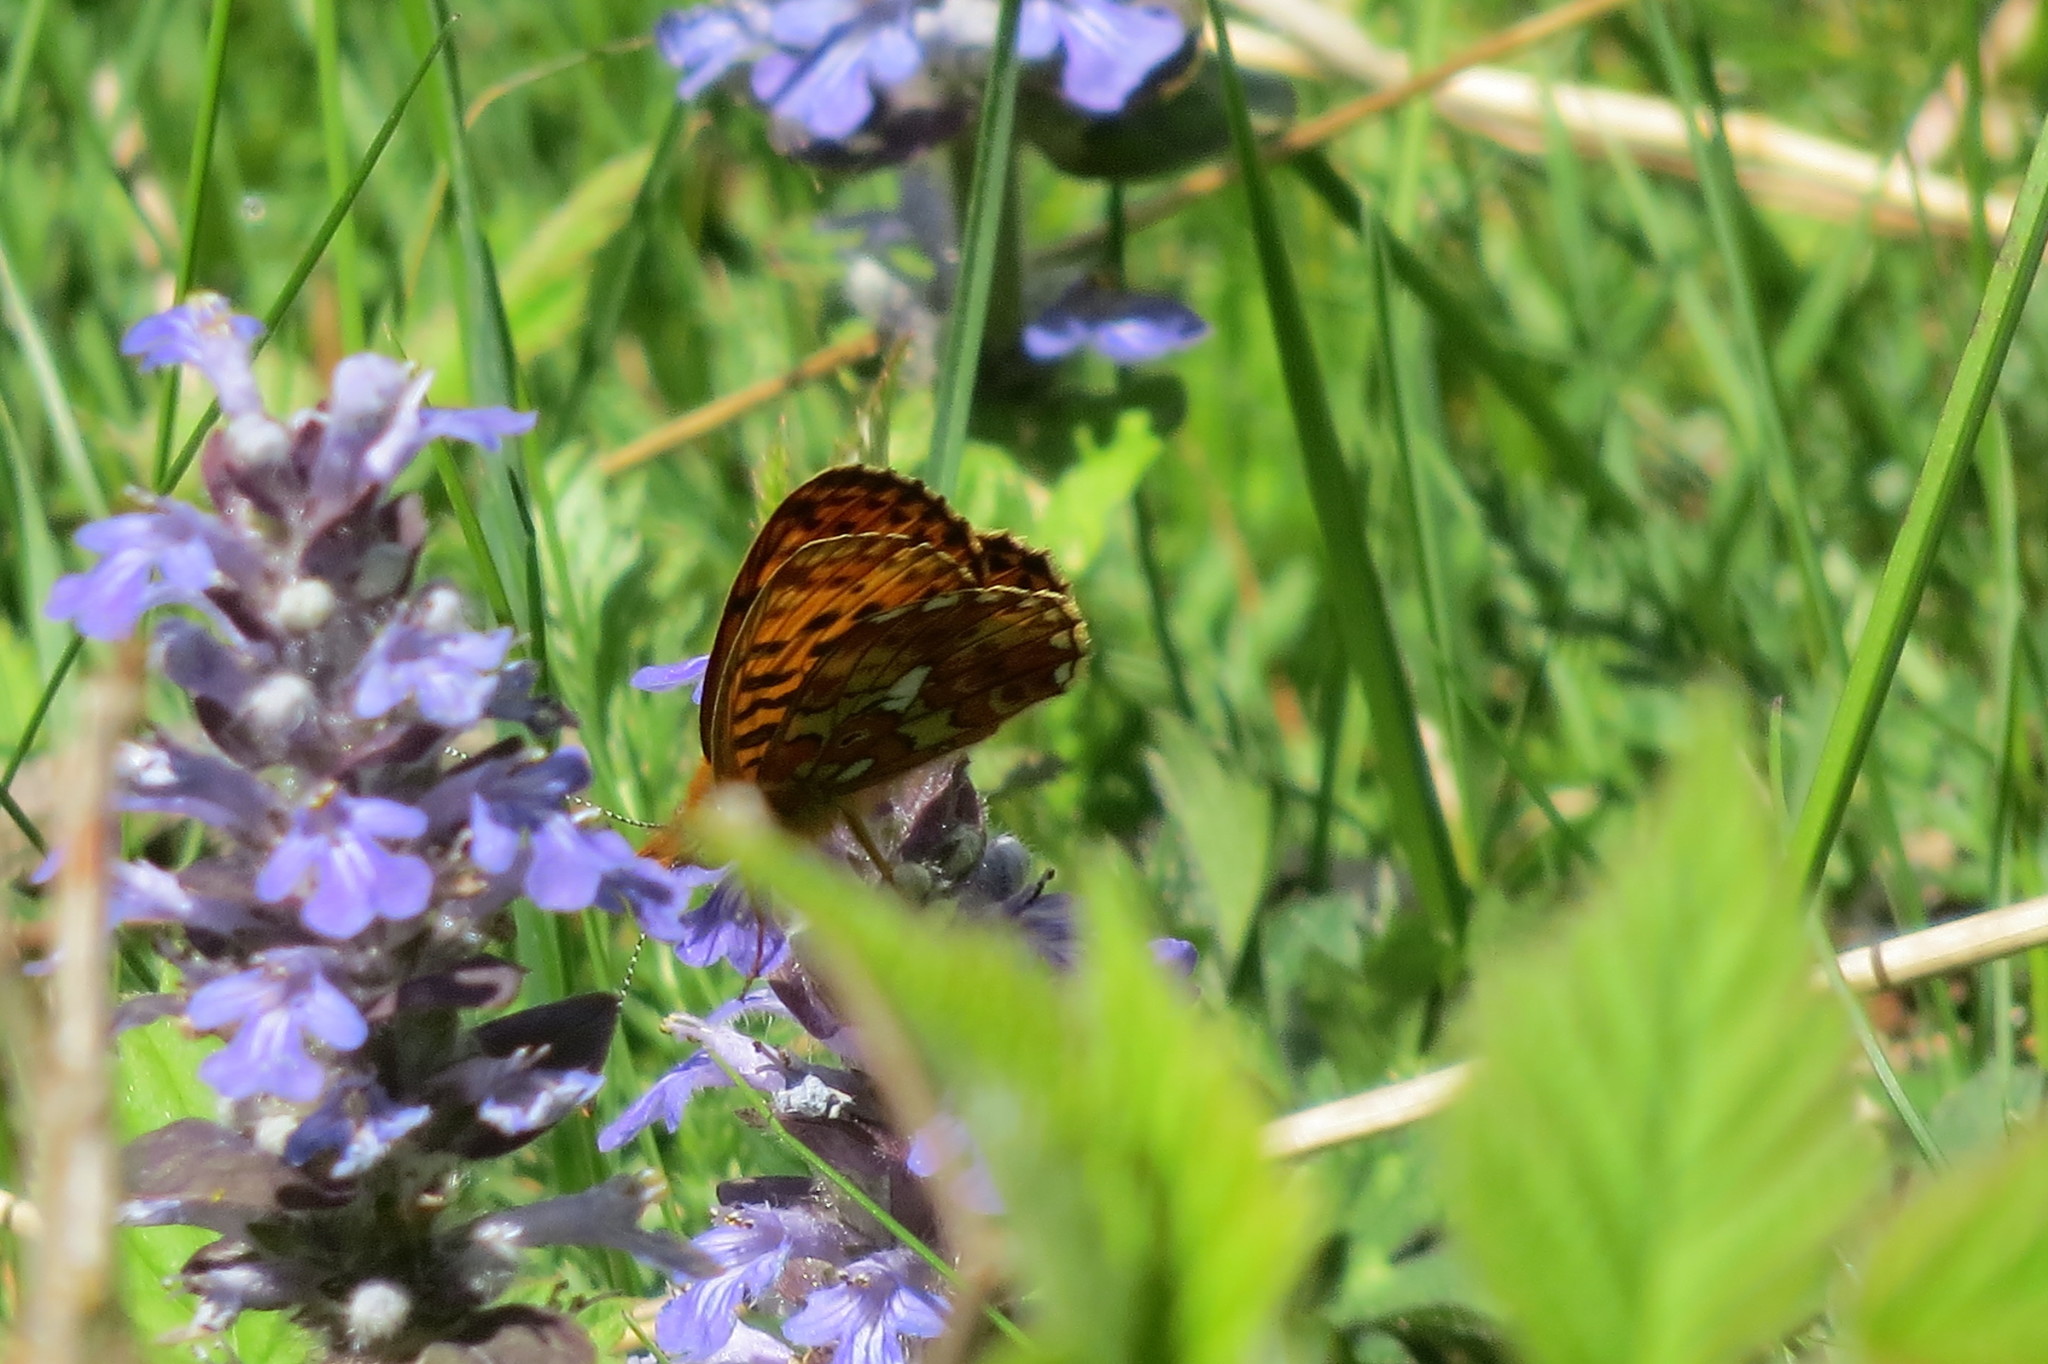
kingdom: Animalia
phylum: Arthropoda
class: Insecta
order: Lepidoptera
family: Nymphalidae
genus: Clossiana
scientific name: Clossiana euphrosyne
